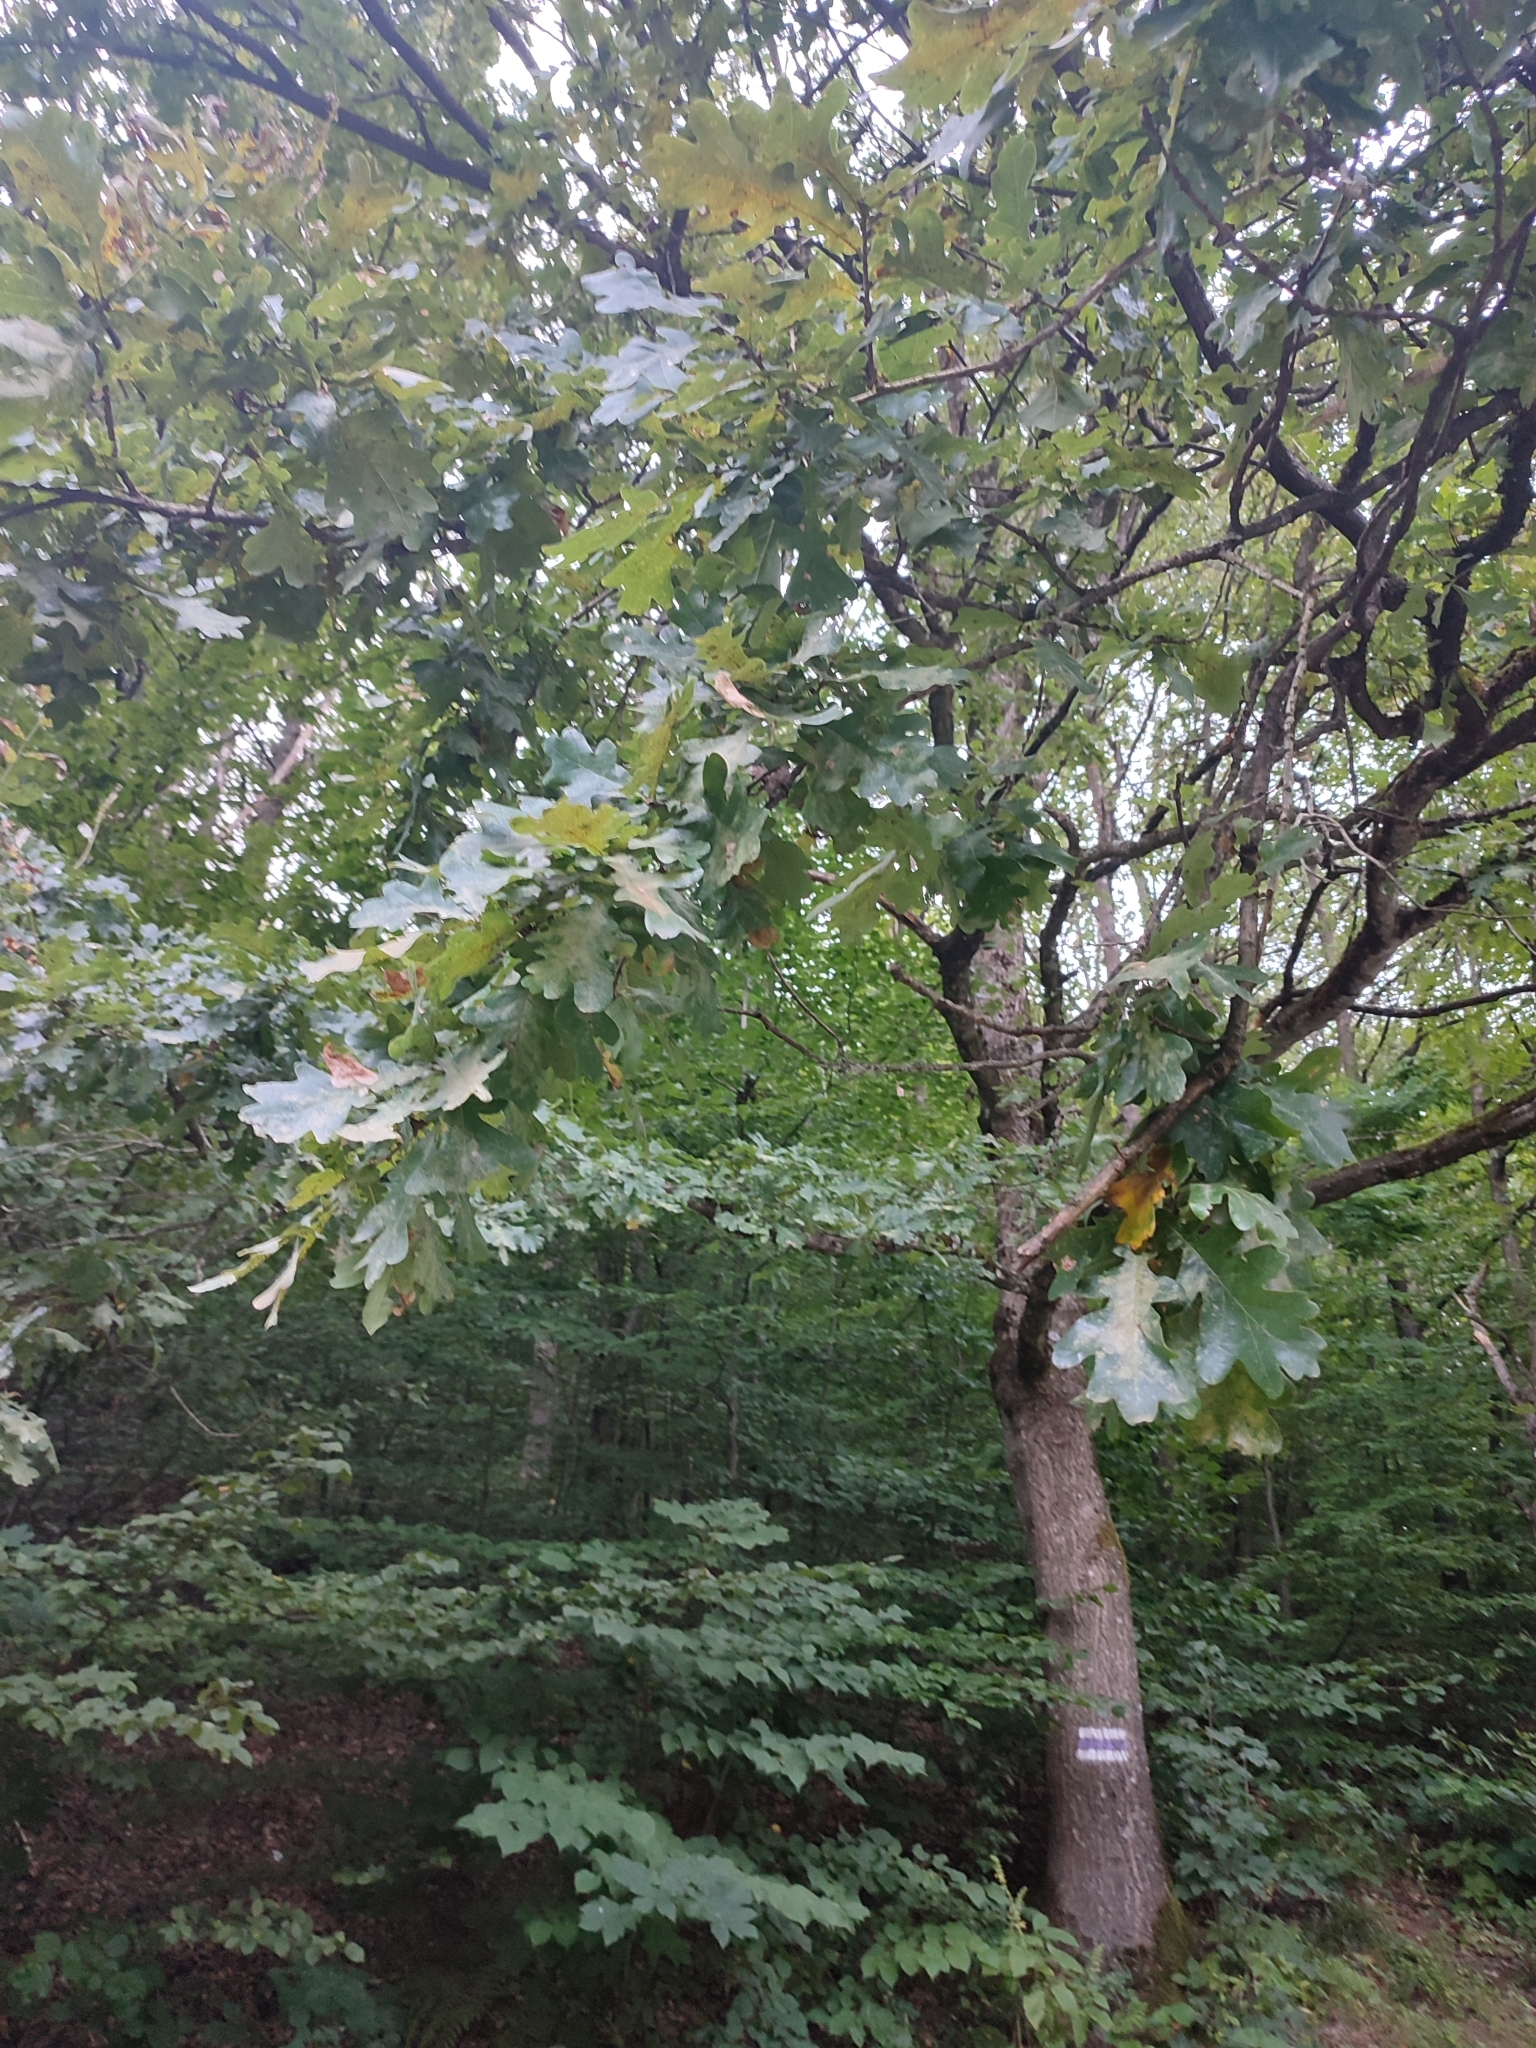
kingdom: Plantae
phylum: Tracheophyta
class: Magnoliopsida
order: Fagales
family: Fagaceae
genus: Quercus
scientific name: Quercus robur
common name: Pedunculate oak
